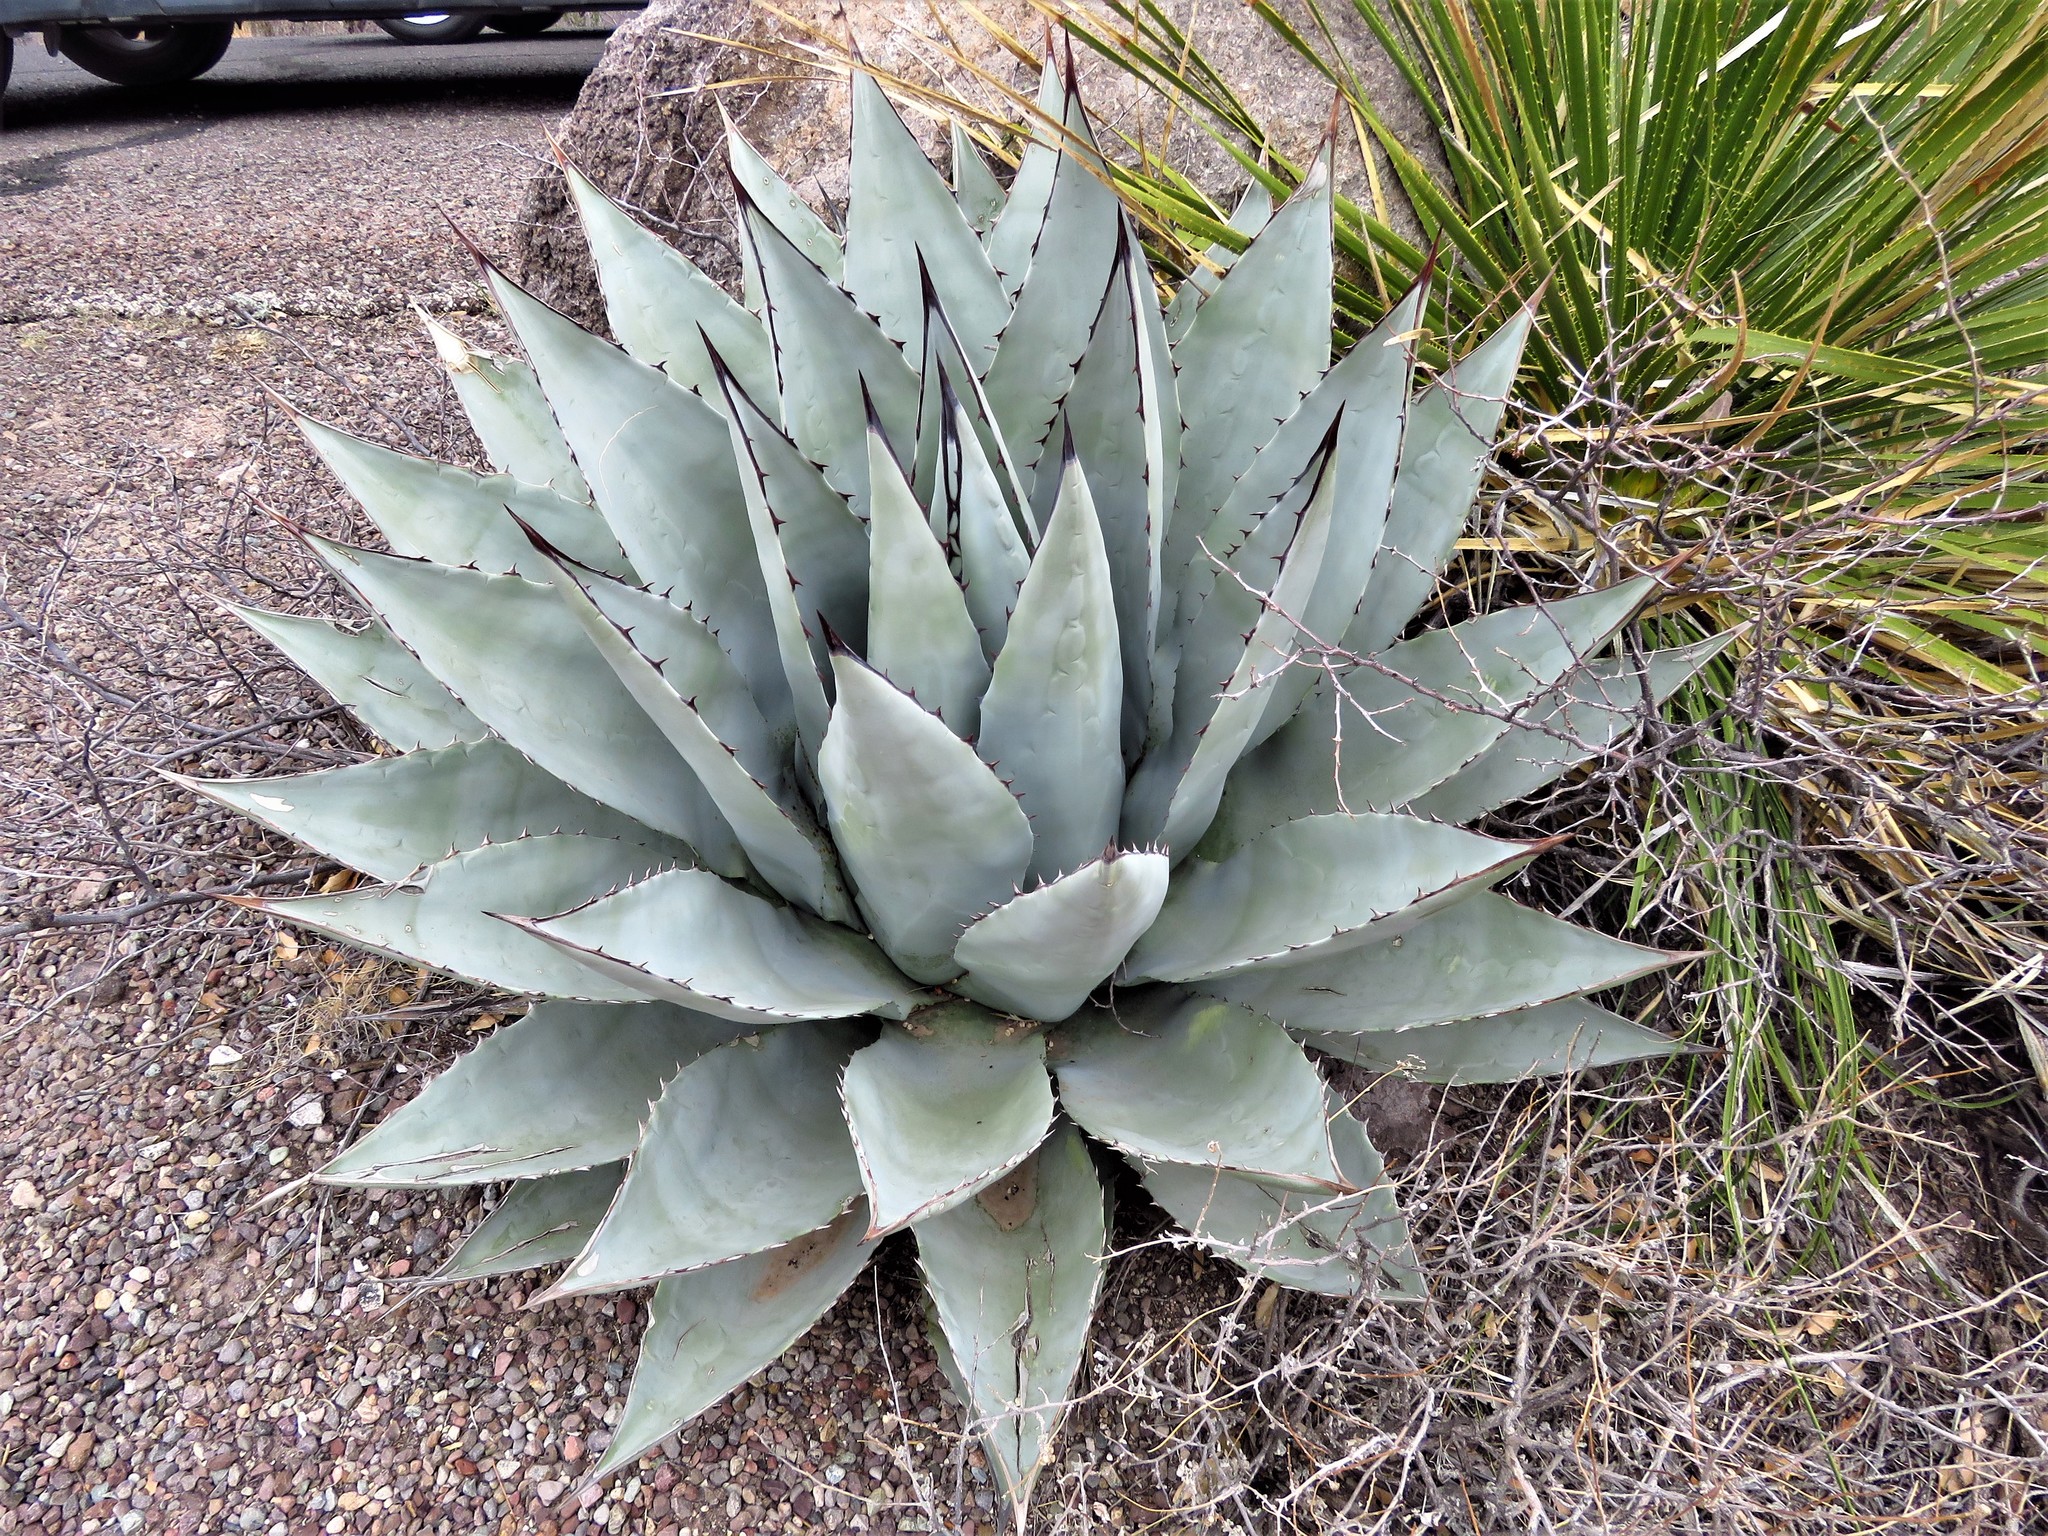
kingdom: Plantae
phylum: Tracheophyta
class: Liliopsida
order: Asparagales
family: Asparagaceae
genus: Agave
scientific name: Agave havardiana
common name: Havard agave
